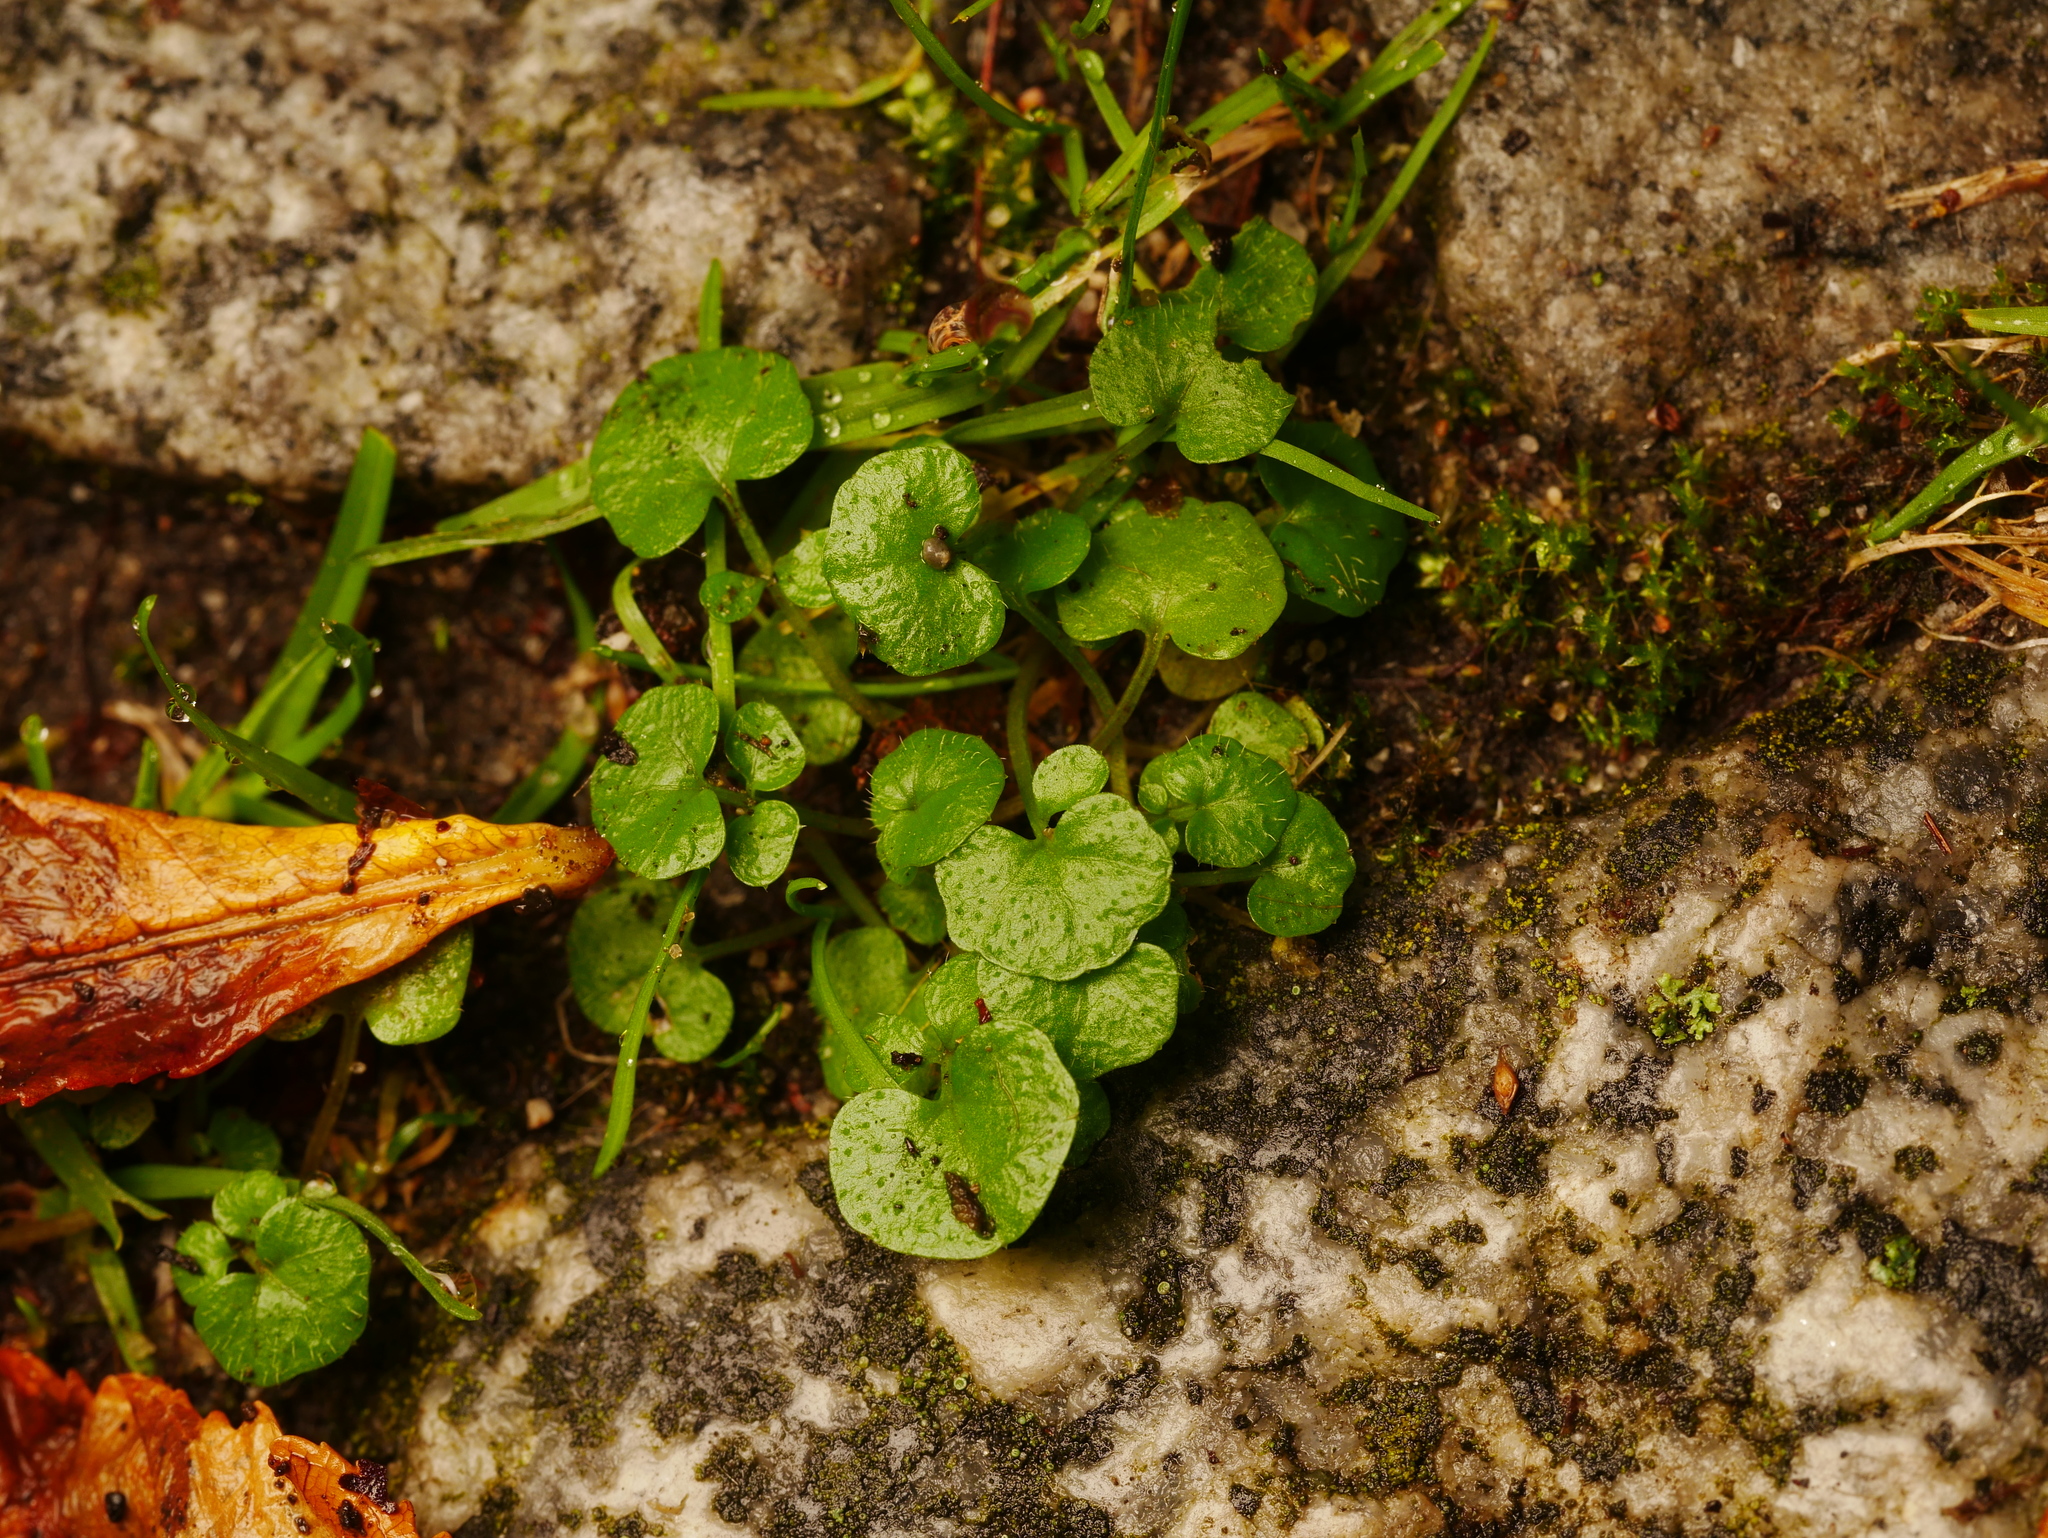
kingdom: Plantae
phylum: Tracheophyta
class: Magnoliopsida
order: Brassicales
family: Brassicaceae
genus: Cardamine
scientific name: Cardamine hirsuta
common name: Hairy bittercress
